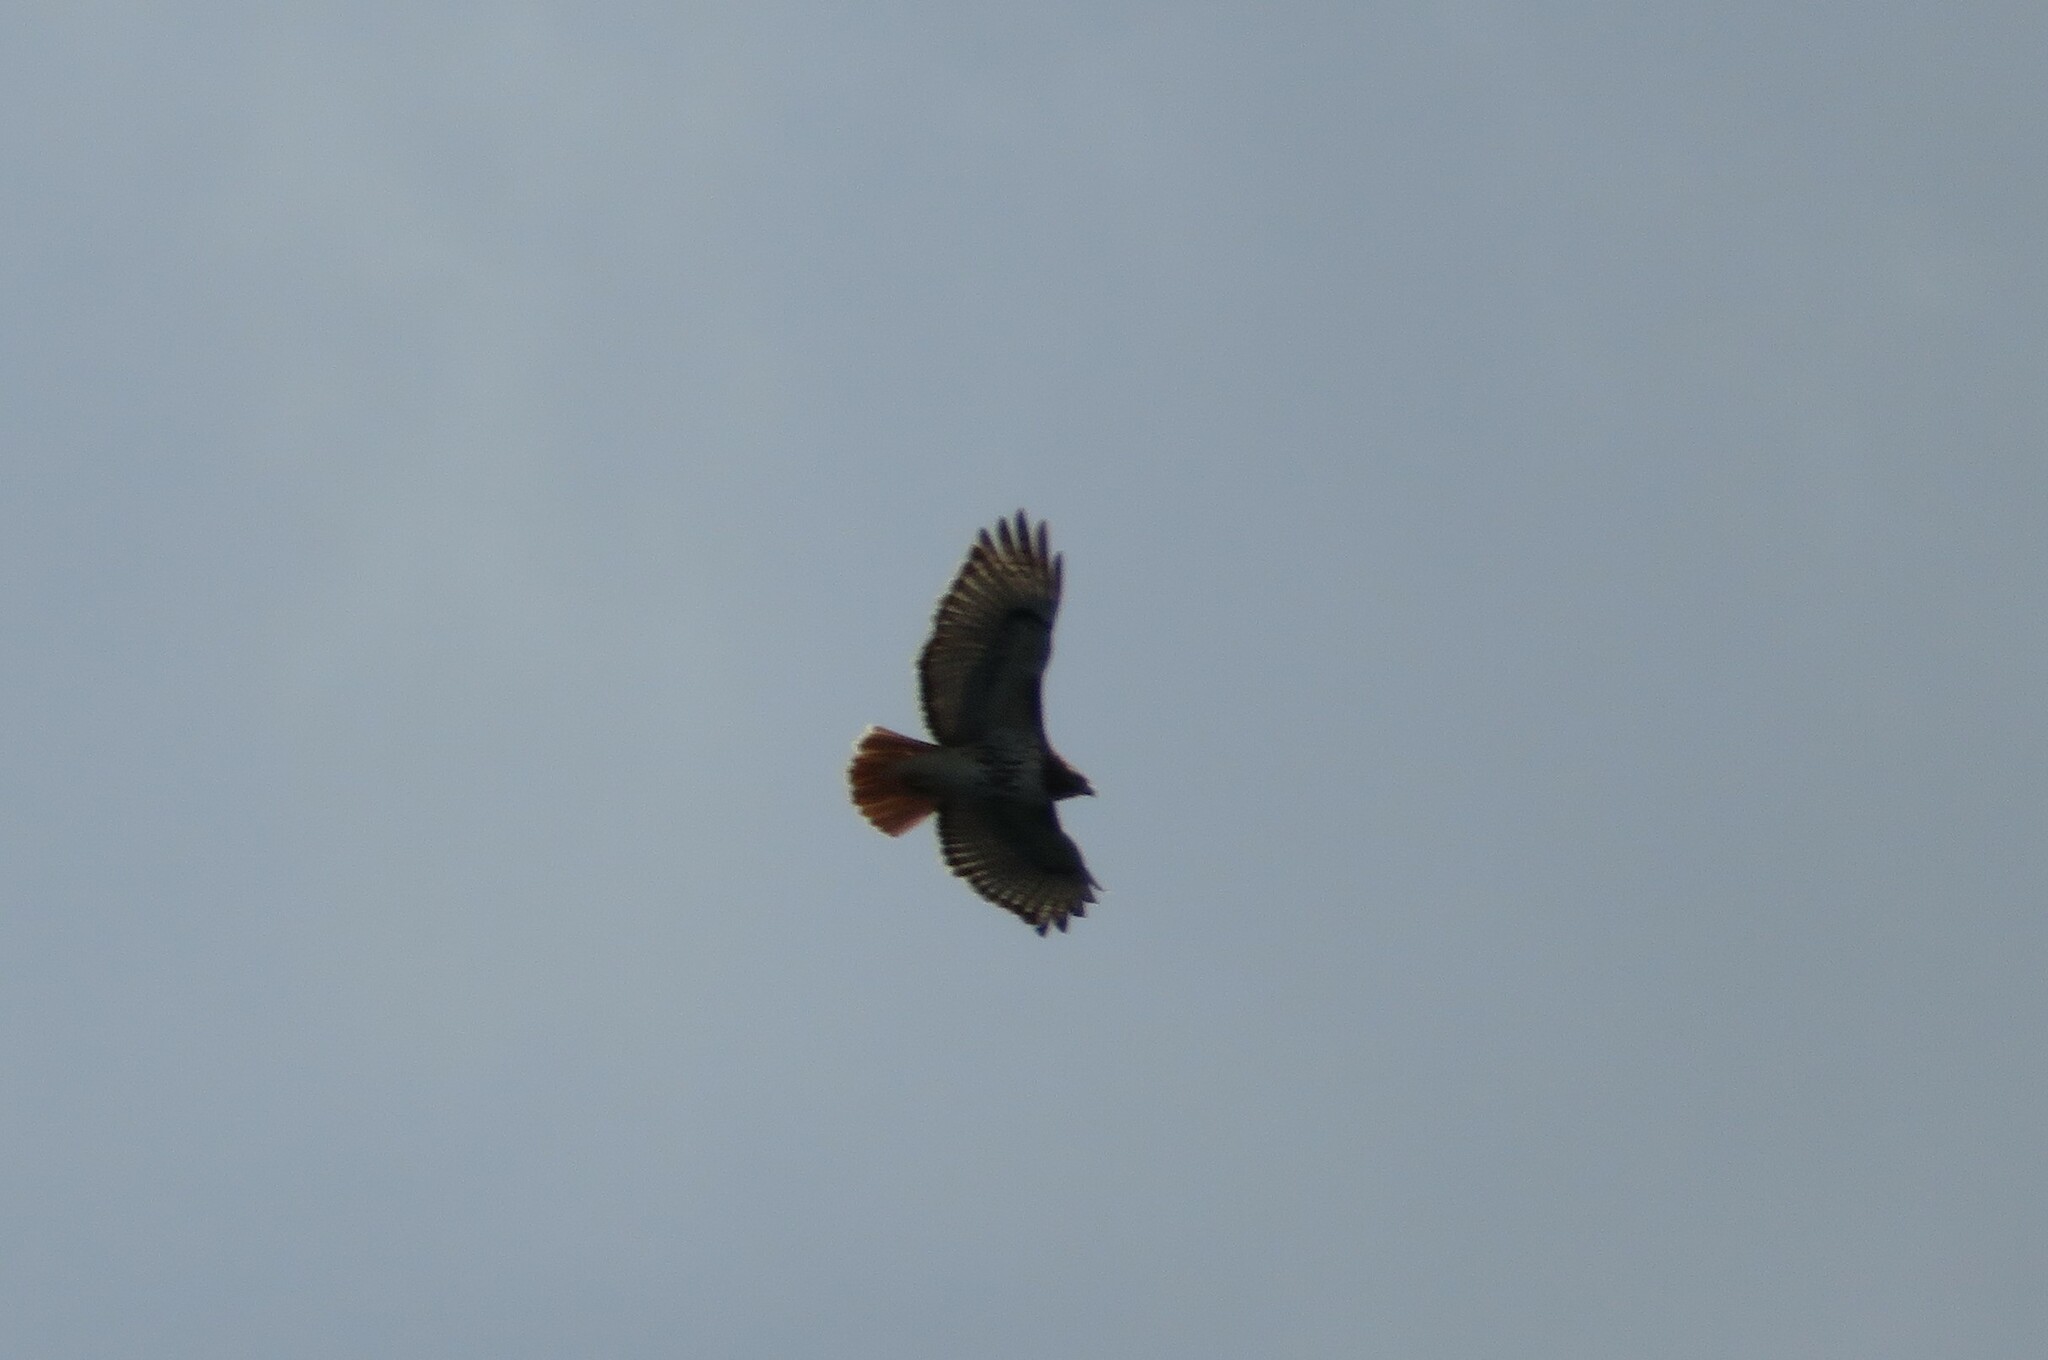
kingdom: Animalia
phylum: Chordata
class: Aves
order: Accipitriformes
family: Accipitridae
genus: Buteo
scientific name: Buteo jamaicensis
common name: Red-tailed hawk
